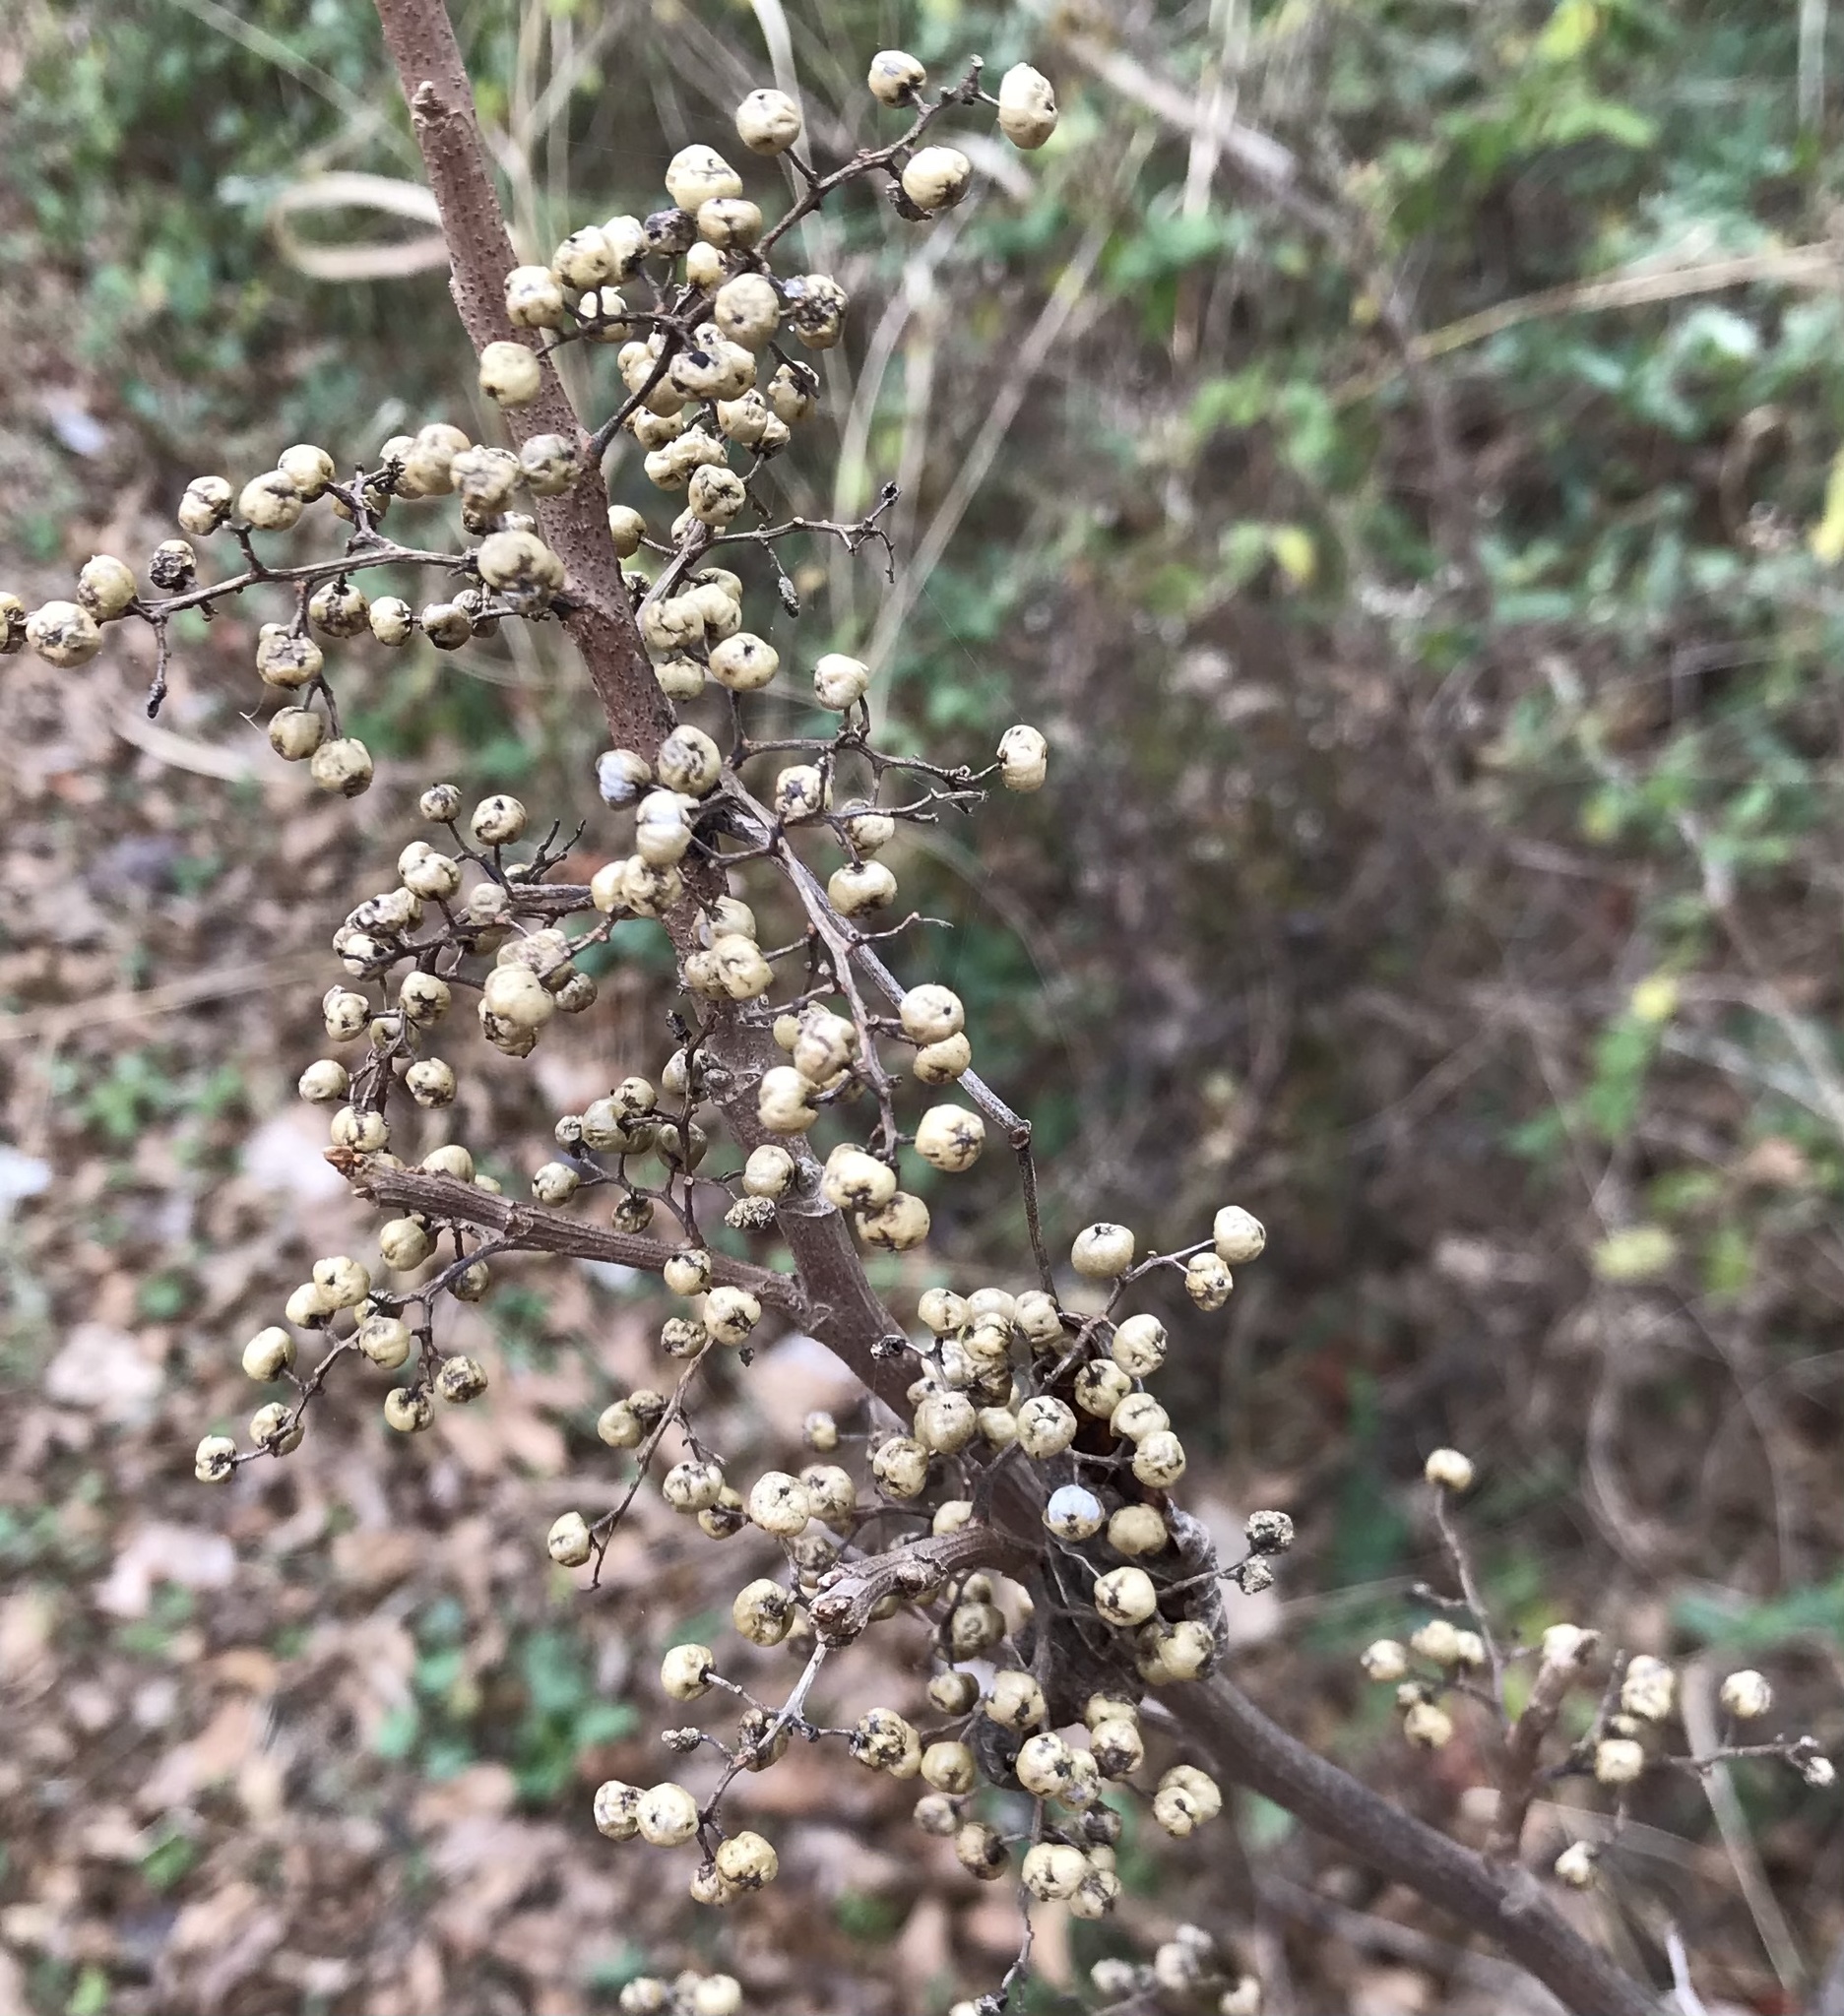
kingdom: Plantae
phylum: Tracheophyta
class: Magnoliopsida
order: Sapindales
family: Anacardiaceae
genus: Toxicodendron
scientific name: Toxicodendron radicans
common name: Poison ivy
